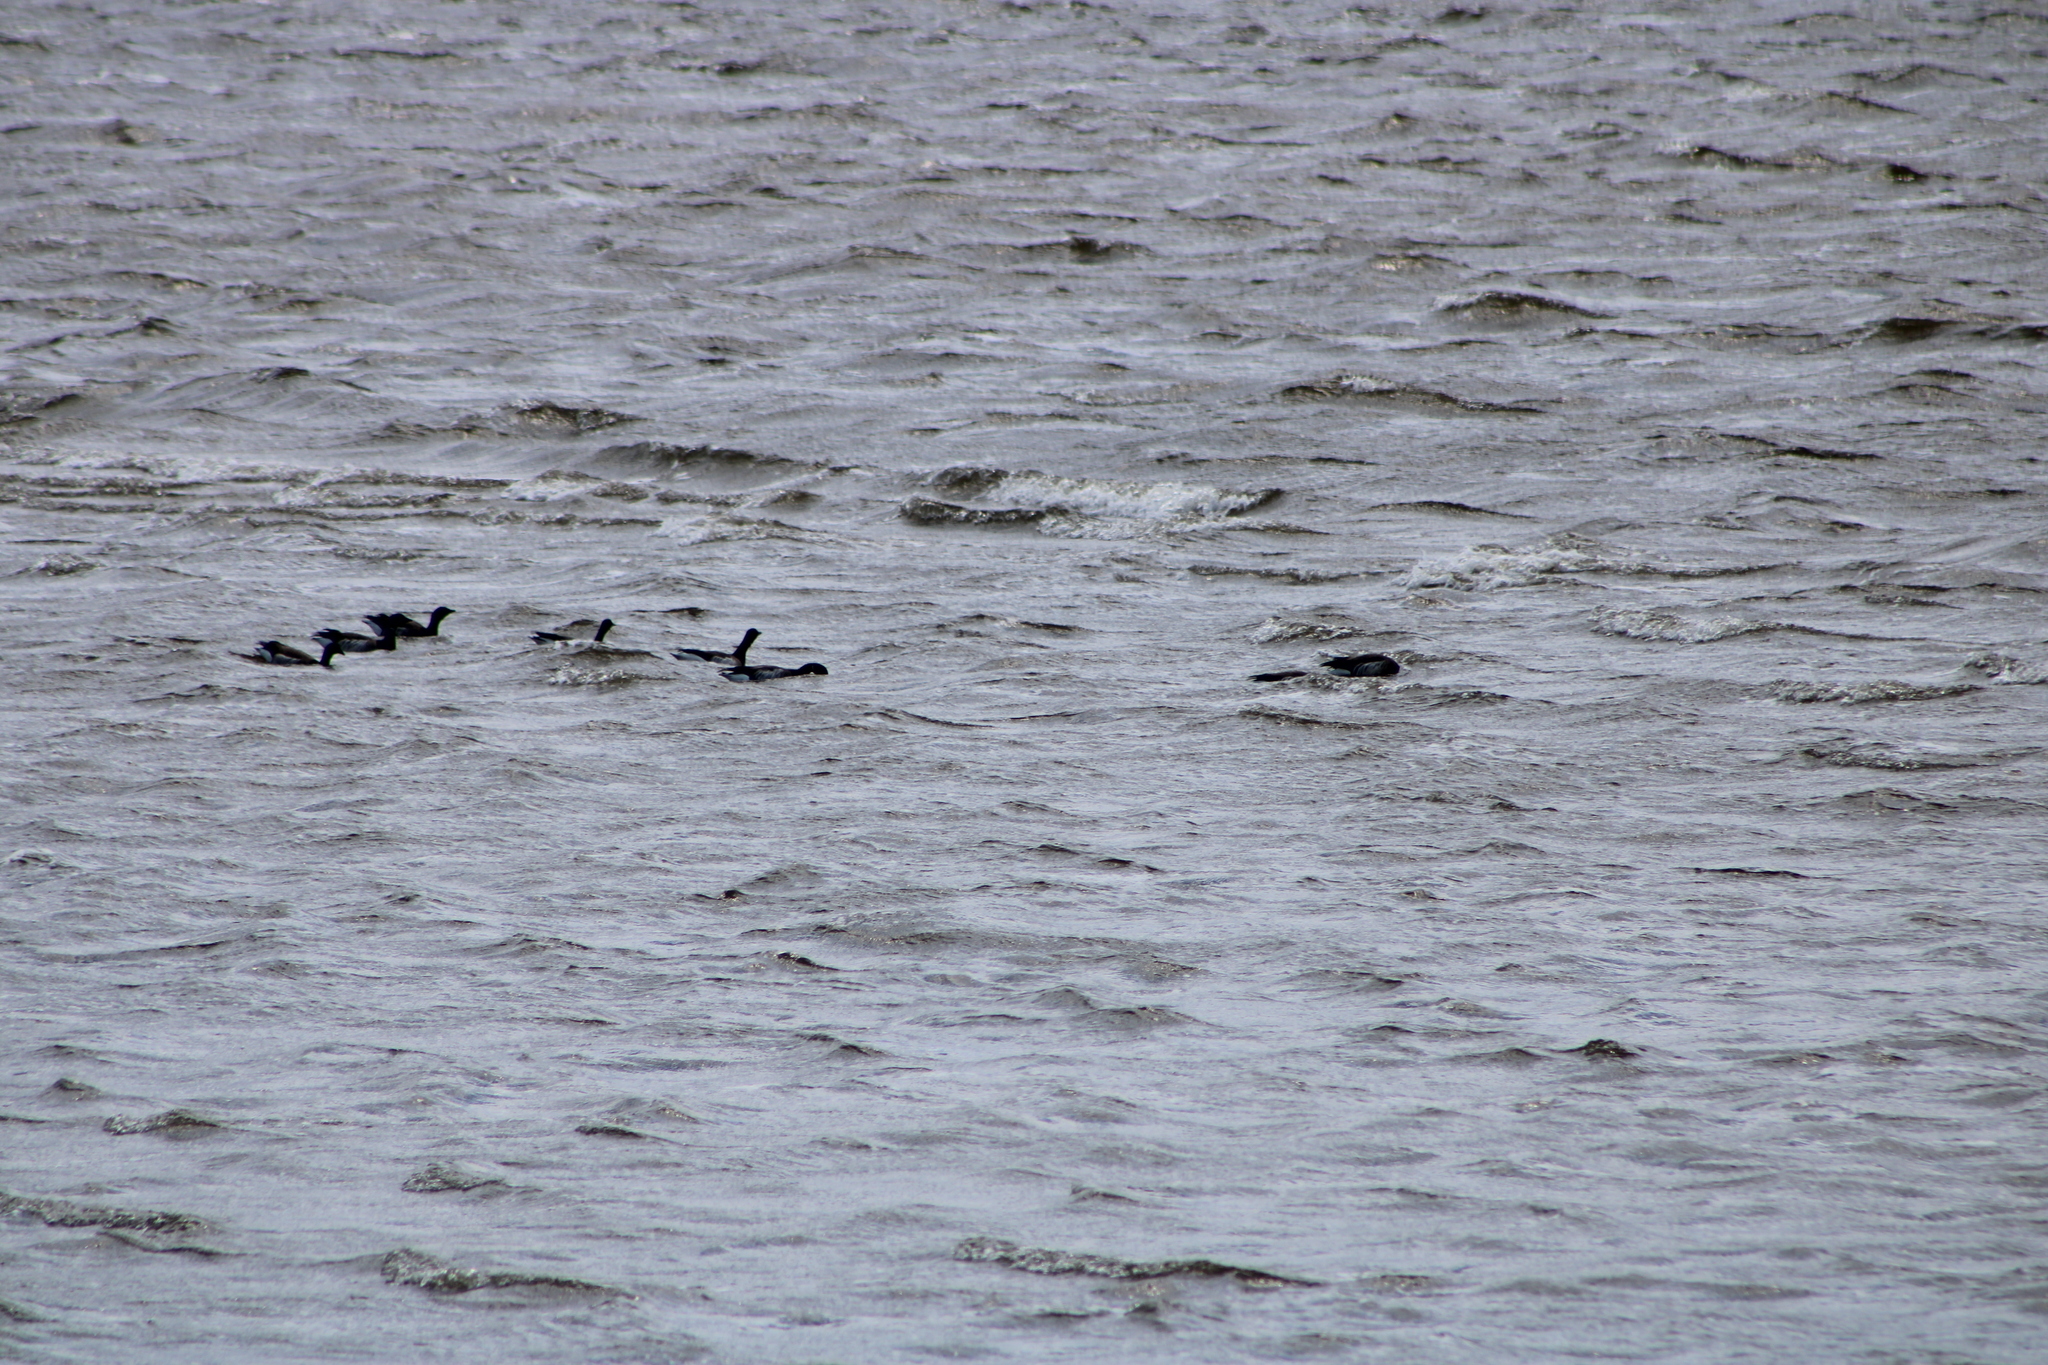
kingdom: Animalia
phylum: Chordata
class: Aves
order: Anseriformes
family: Anatidae
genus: Branta
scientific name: Branta bernicla
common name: Brant goose
